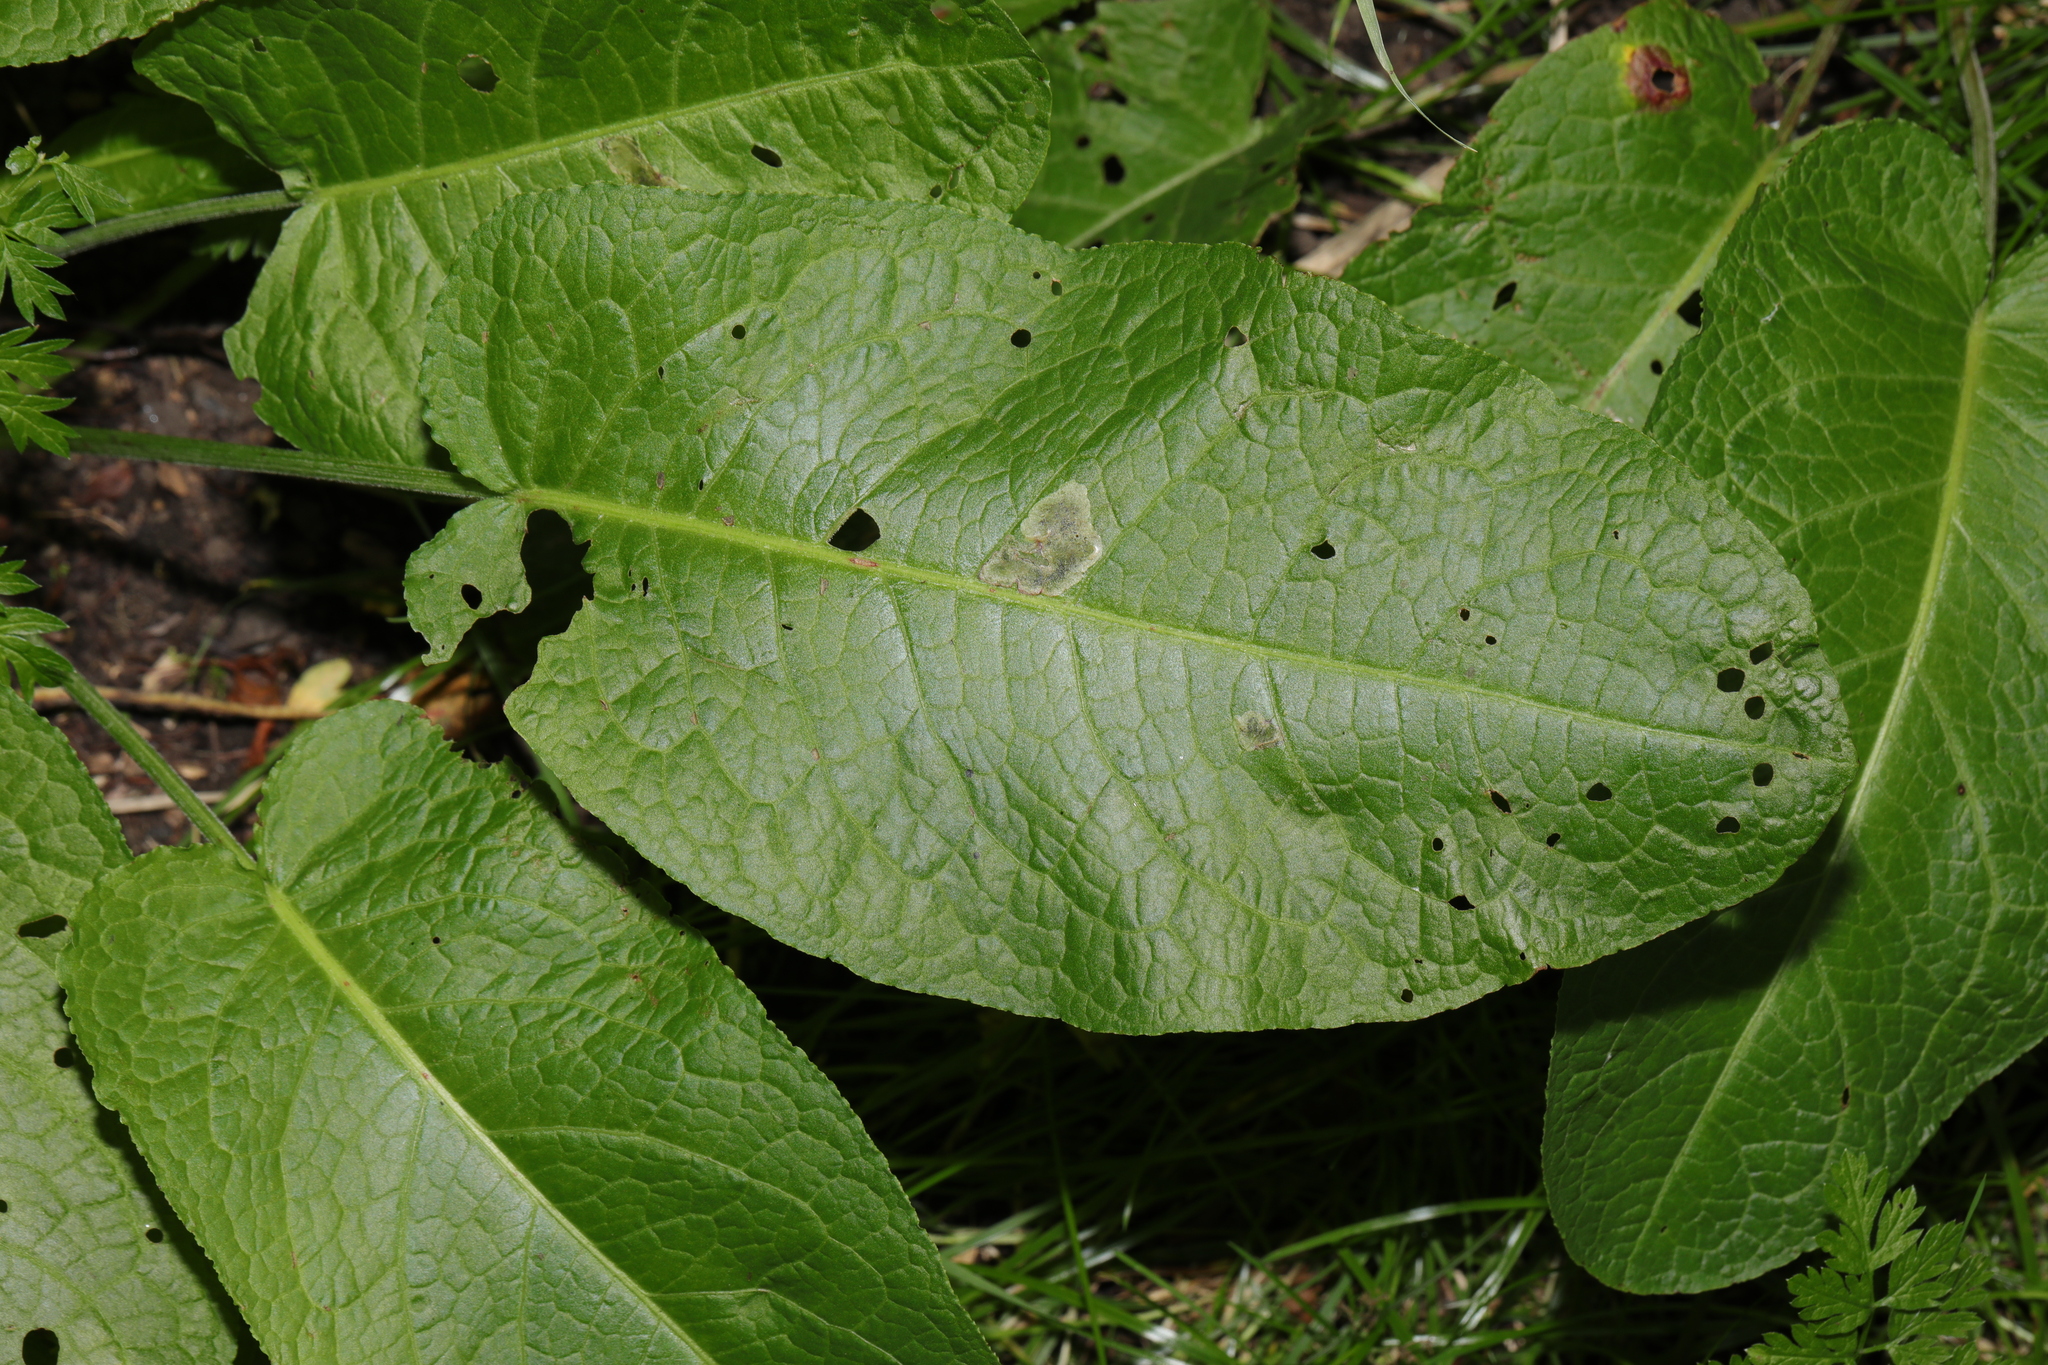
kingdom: Plantae
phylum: Tracheophyta
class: Magnoliopsida
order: Caryophyllales
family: Polygonaceae
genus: Rumex
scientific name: Rumex obtusifolius
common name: Bitter dock
